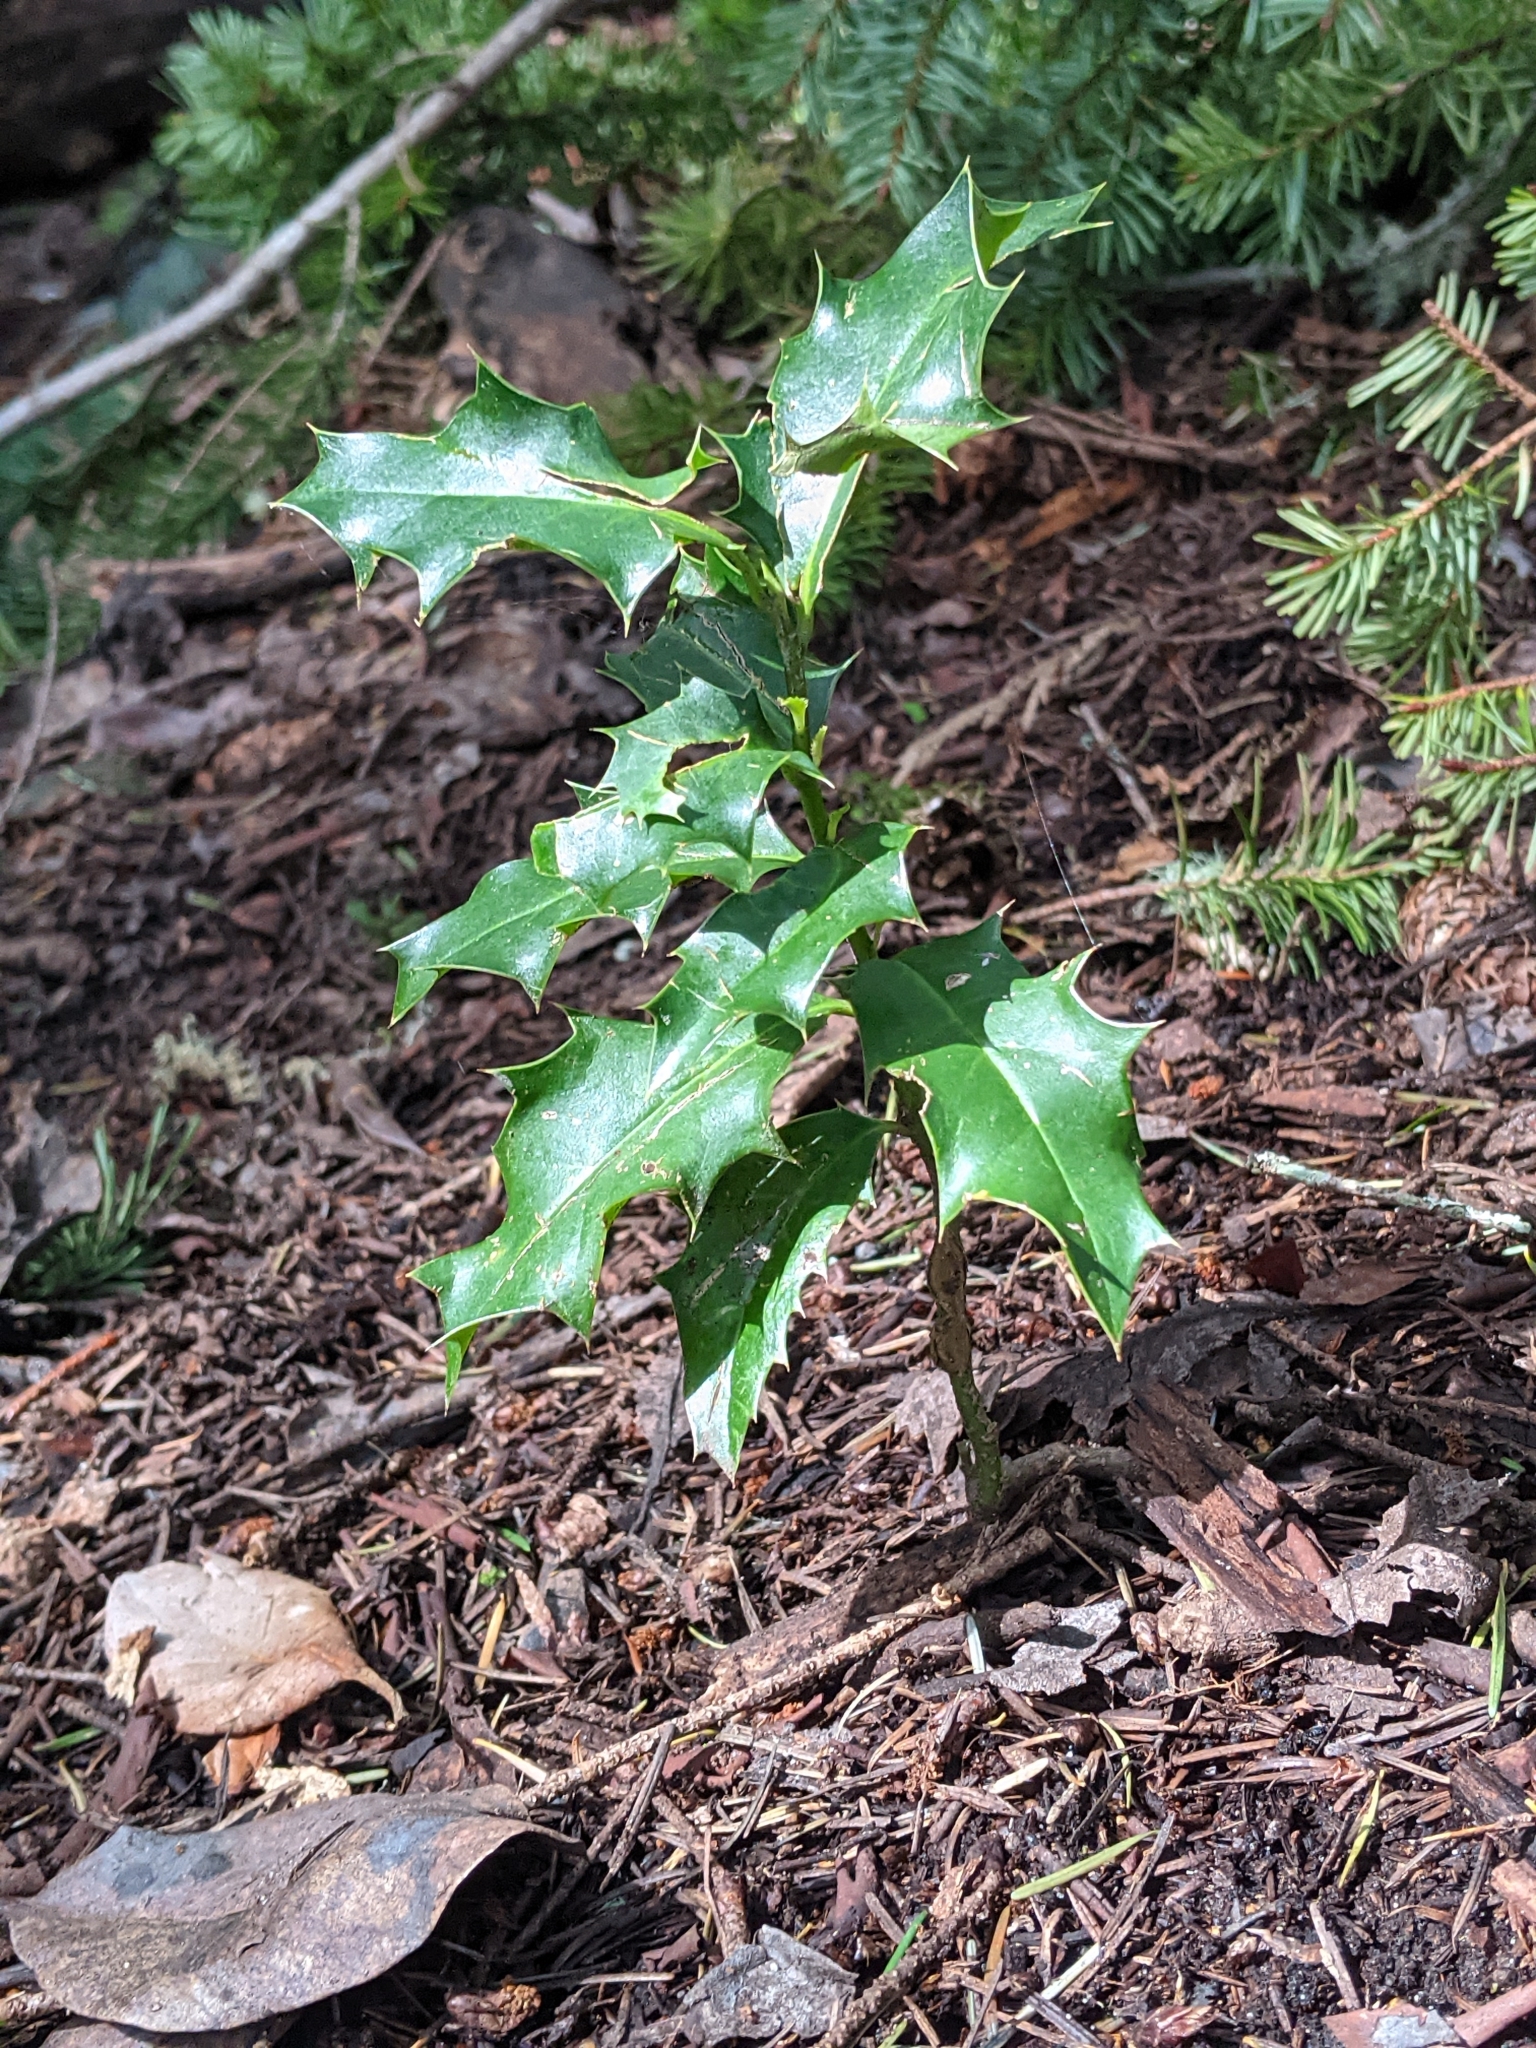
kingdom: Plantae
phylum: Tracheophyta
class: Magnoliopsida
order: Aquifoliales
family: Aquifoliaceae
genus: Ilex
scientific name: Ilex aquifolium
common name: English holly
